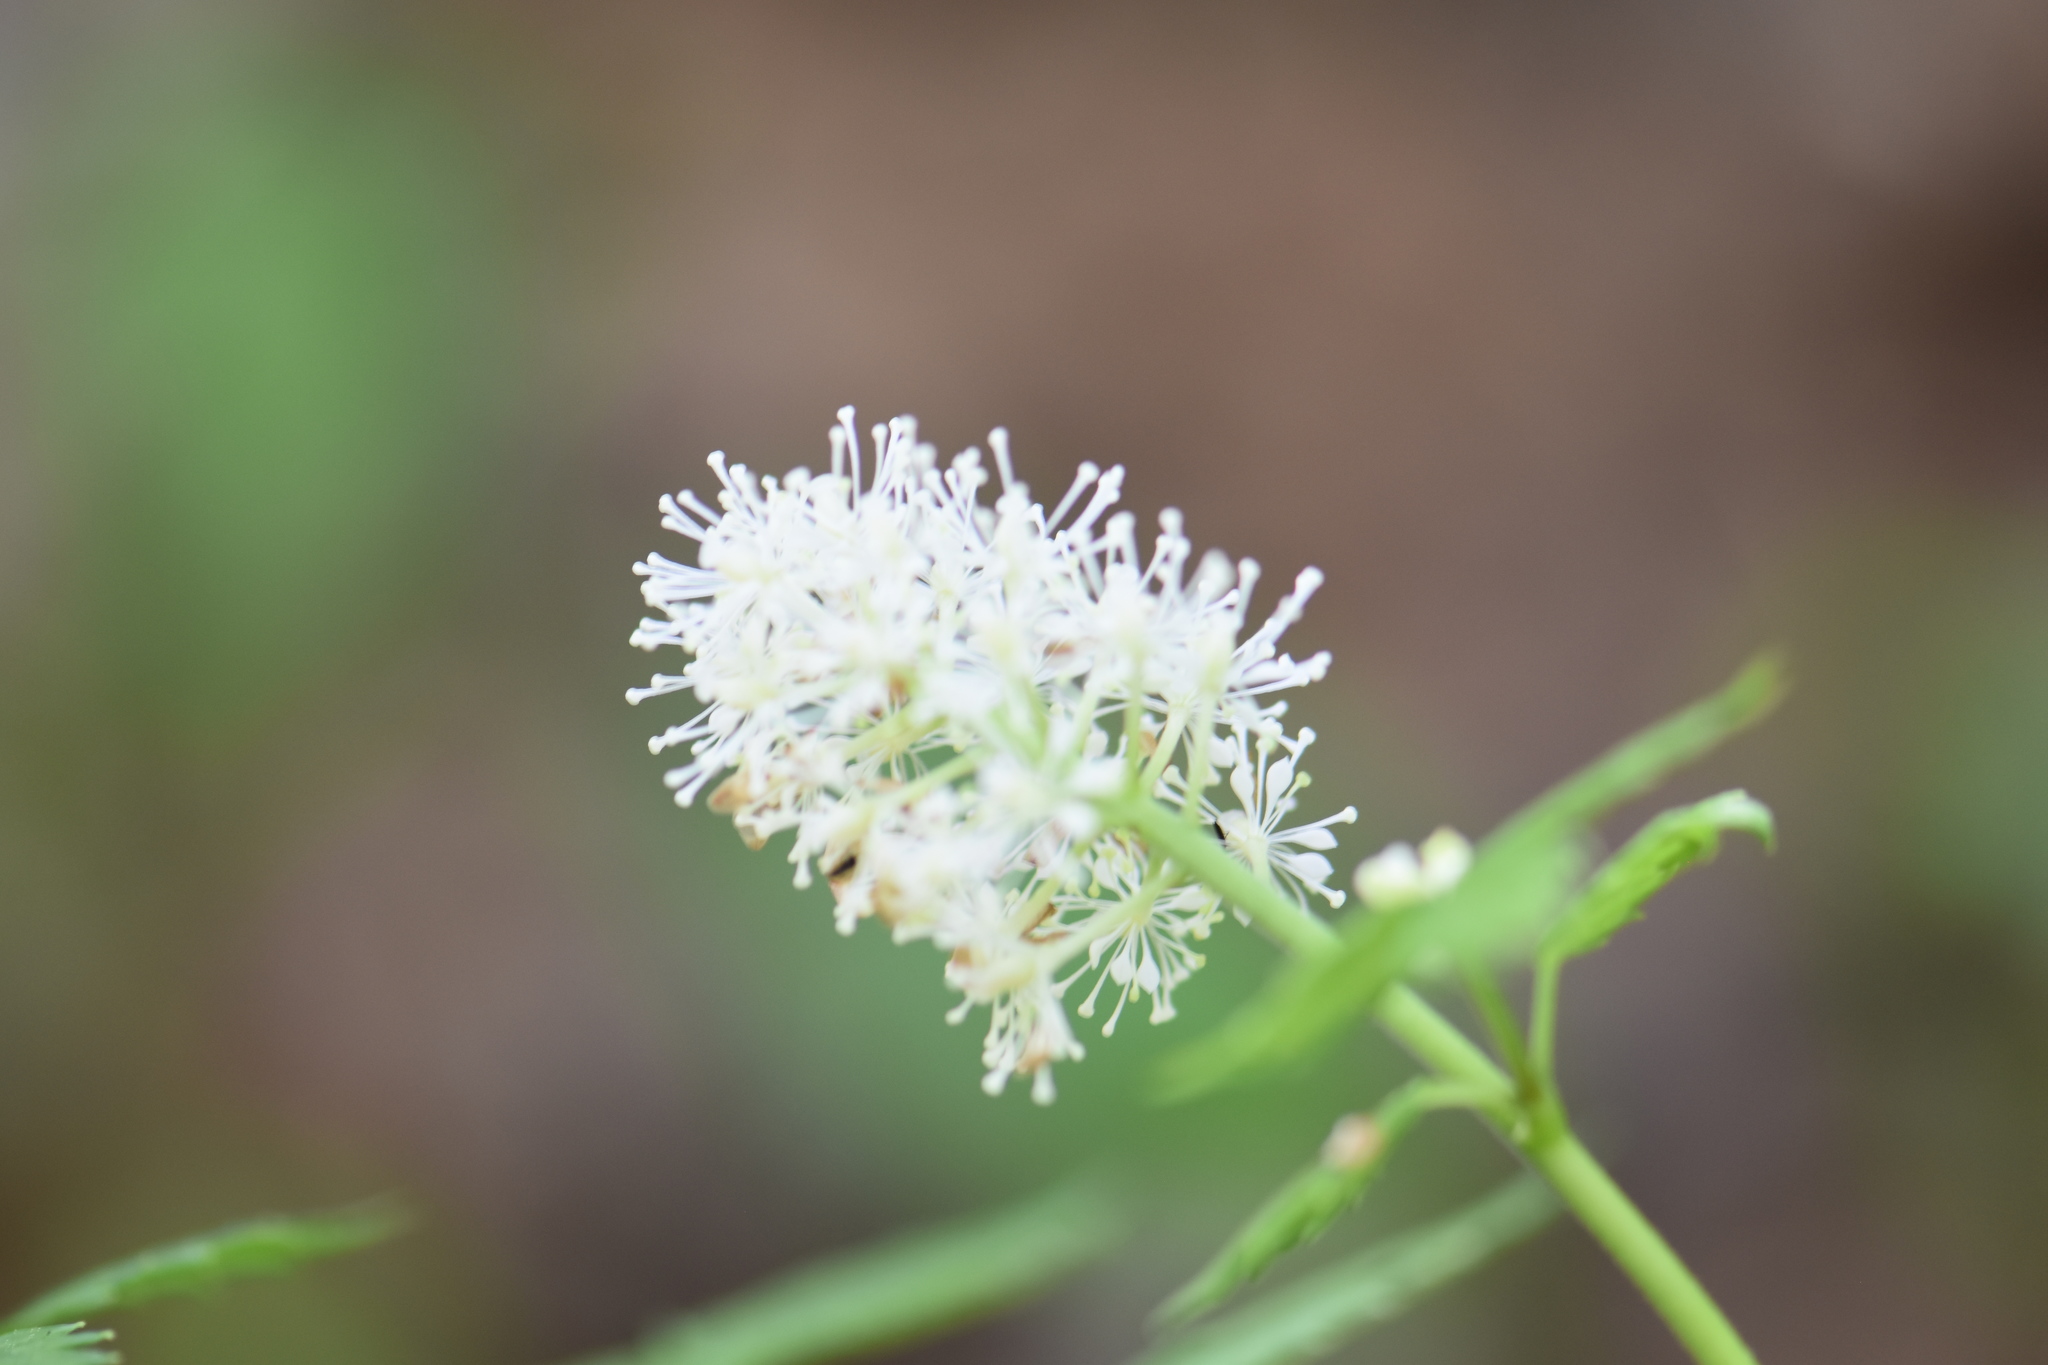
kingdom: Plantae
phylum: Tracheophyta
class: Magnoliopsida
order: Ranunculales
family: Ranunculaceae
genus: Actaea
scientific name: Actaea rubra
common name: Red baneberry
